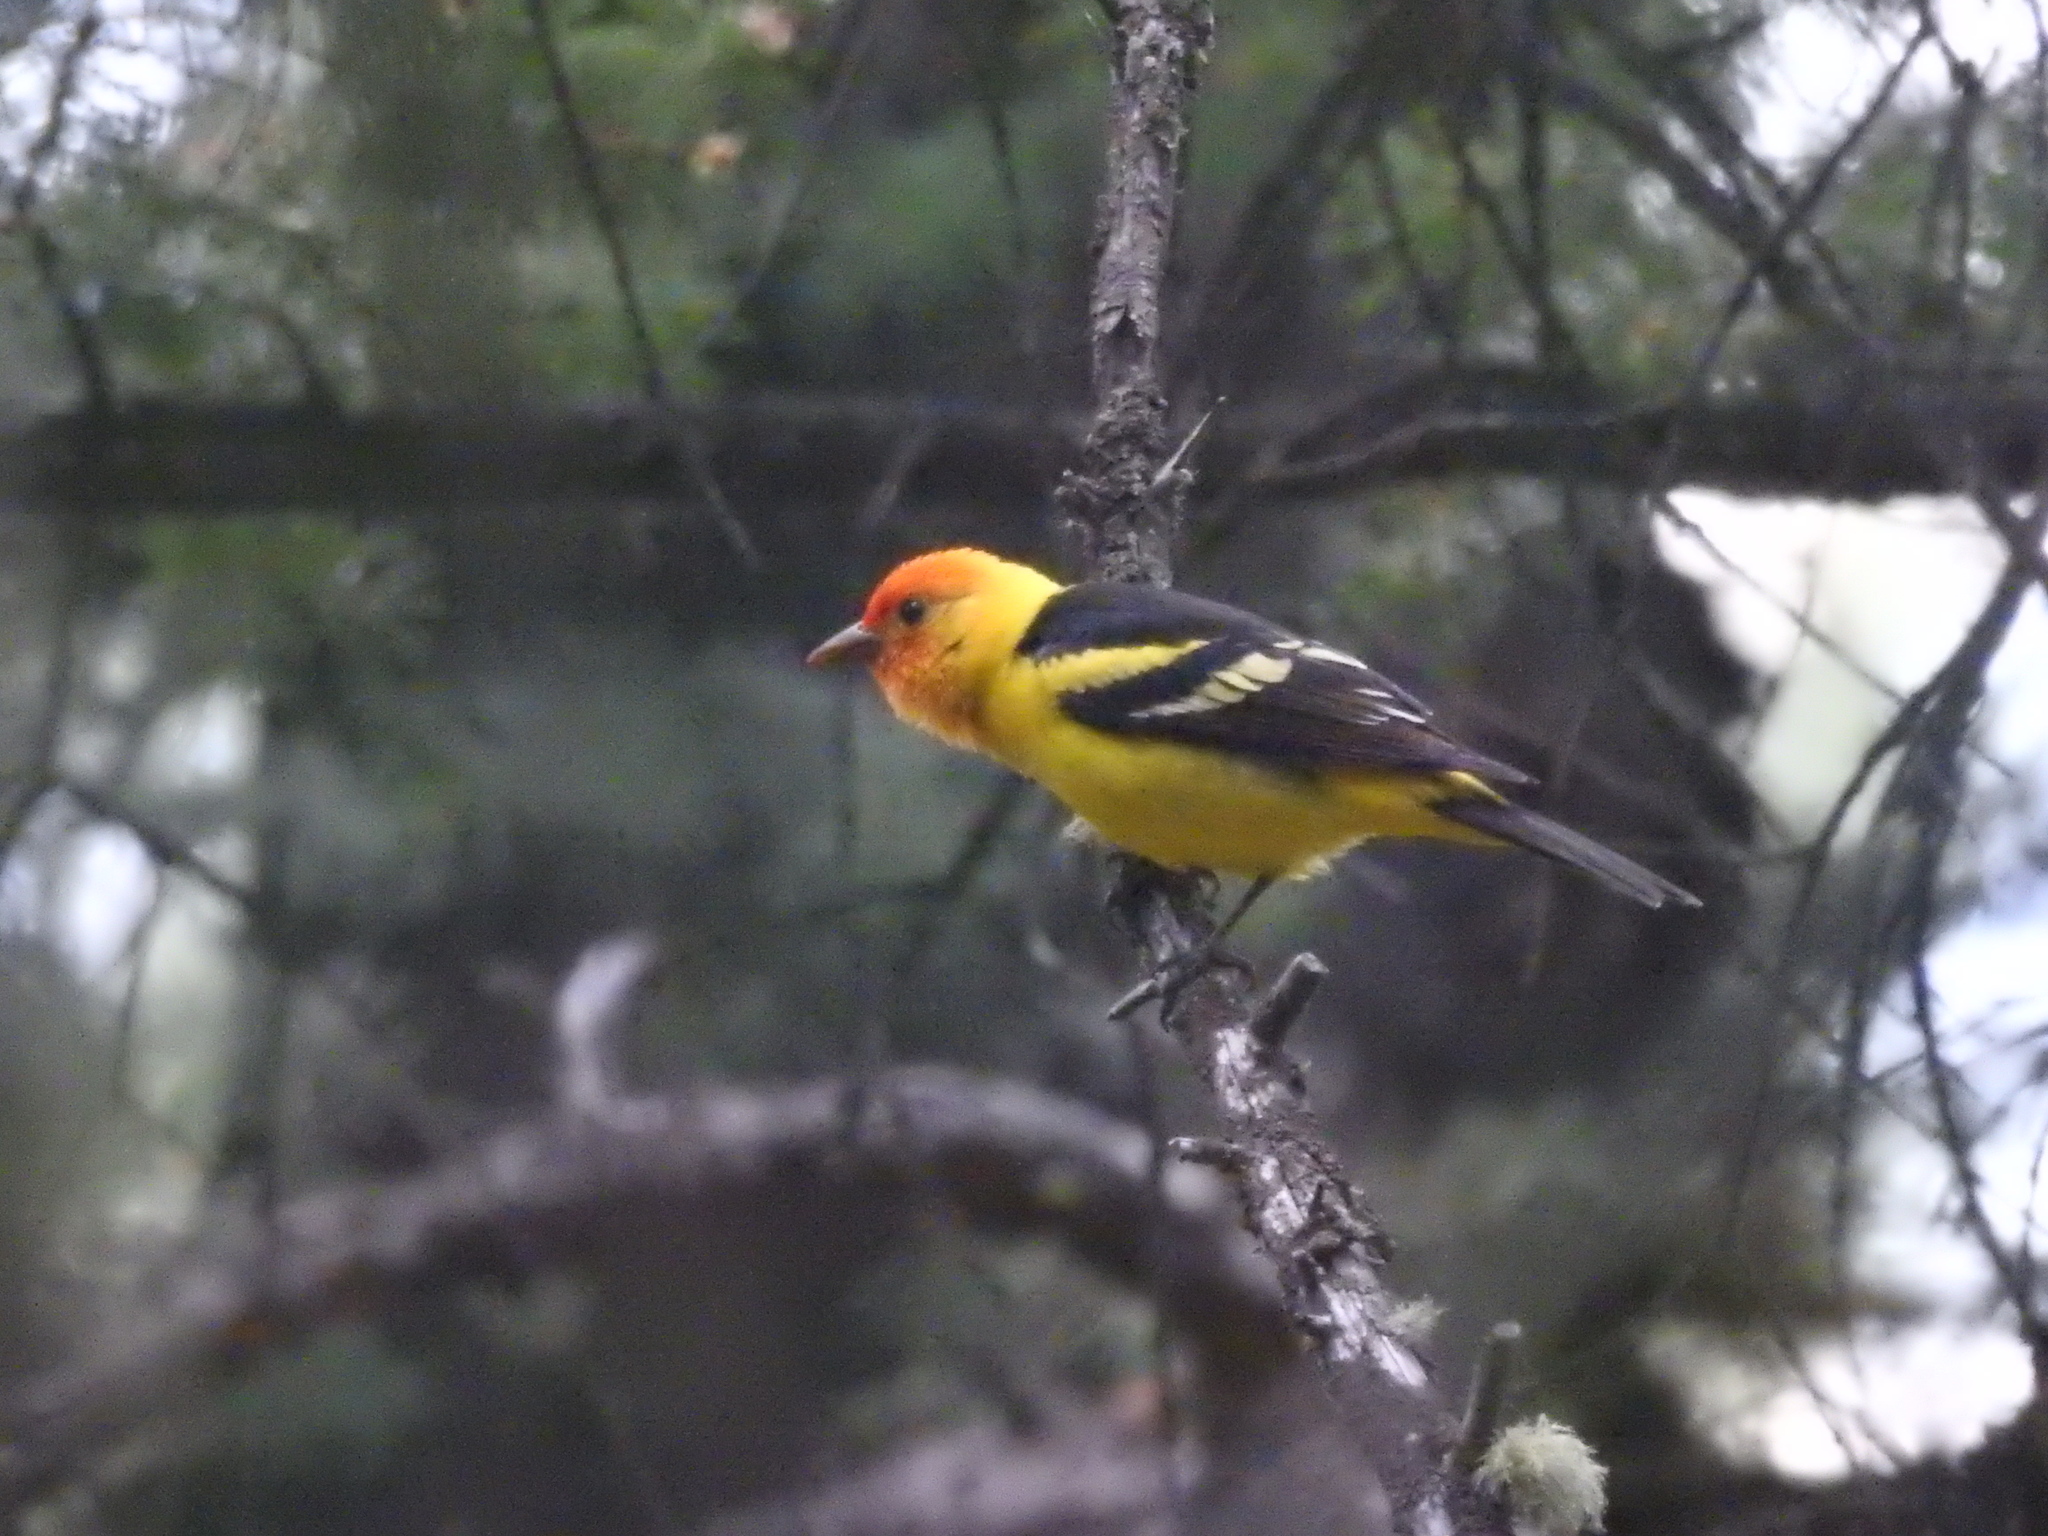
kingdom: Animalia
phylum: Chordata
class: Aves
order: Passeriformes
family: Cardinalidae
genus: Piranga
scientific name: Piranga ludoviciana
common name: Western tanager
